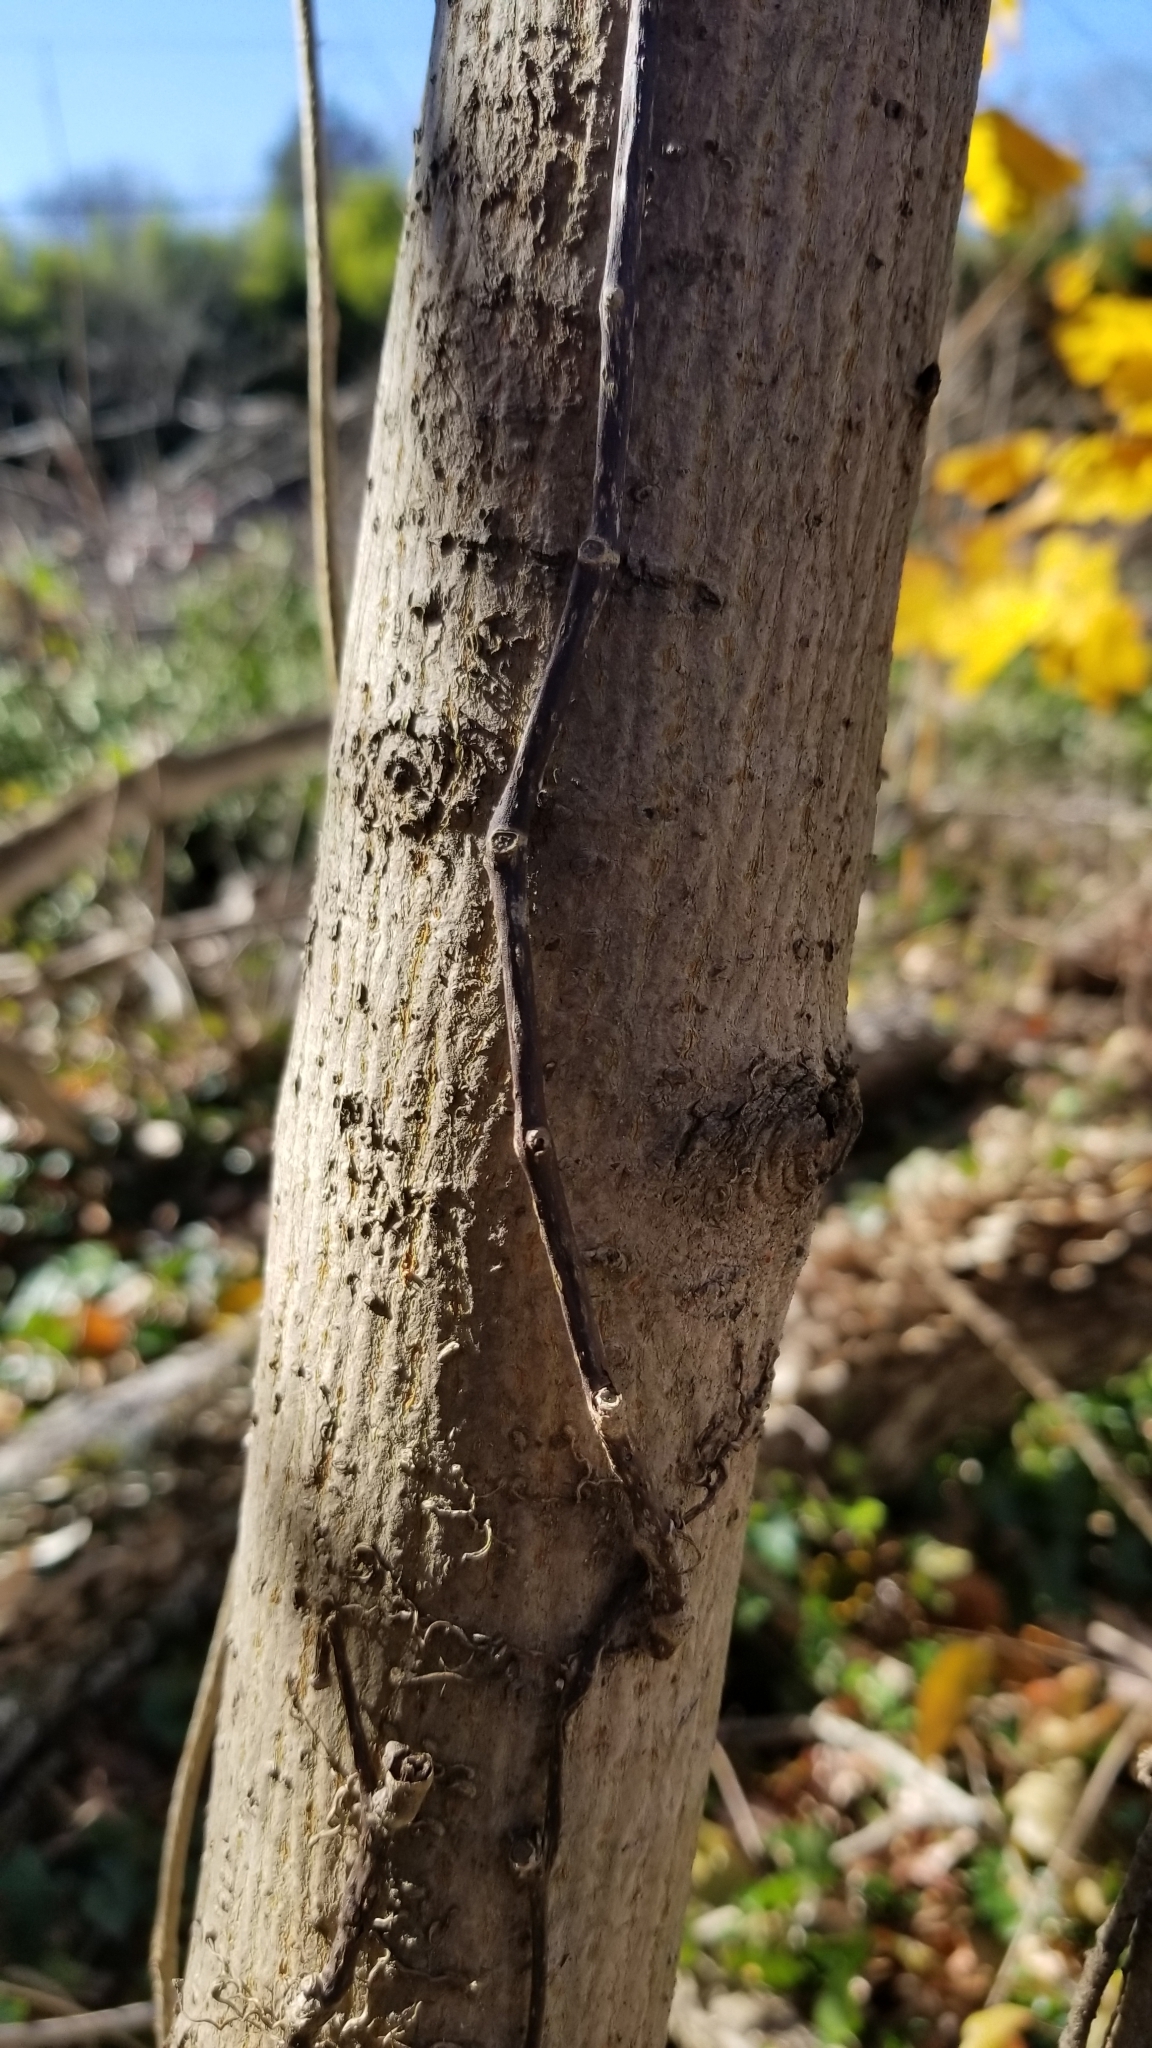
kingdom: Plantae
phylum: Tracheophyta
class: Magnoliopsida
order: Sapindales
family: Sapindaceae
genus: Acer
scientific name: Acer platanoides
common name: Norway maple
